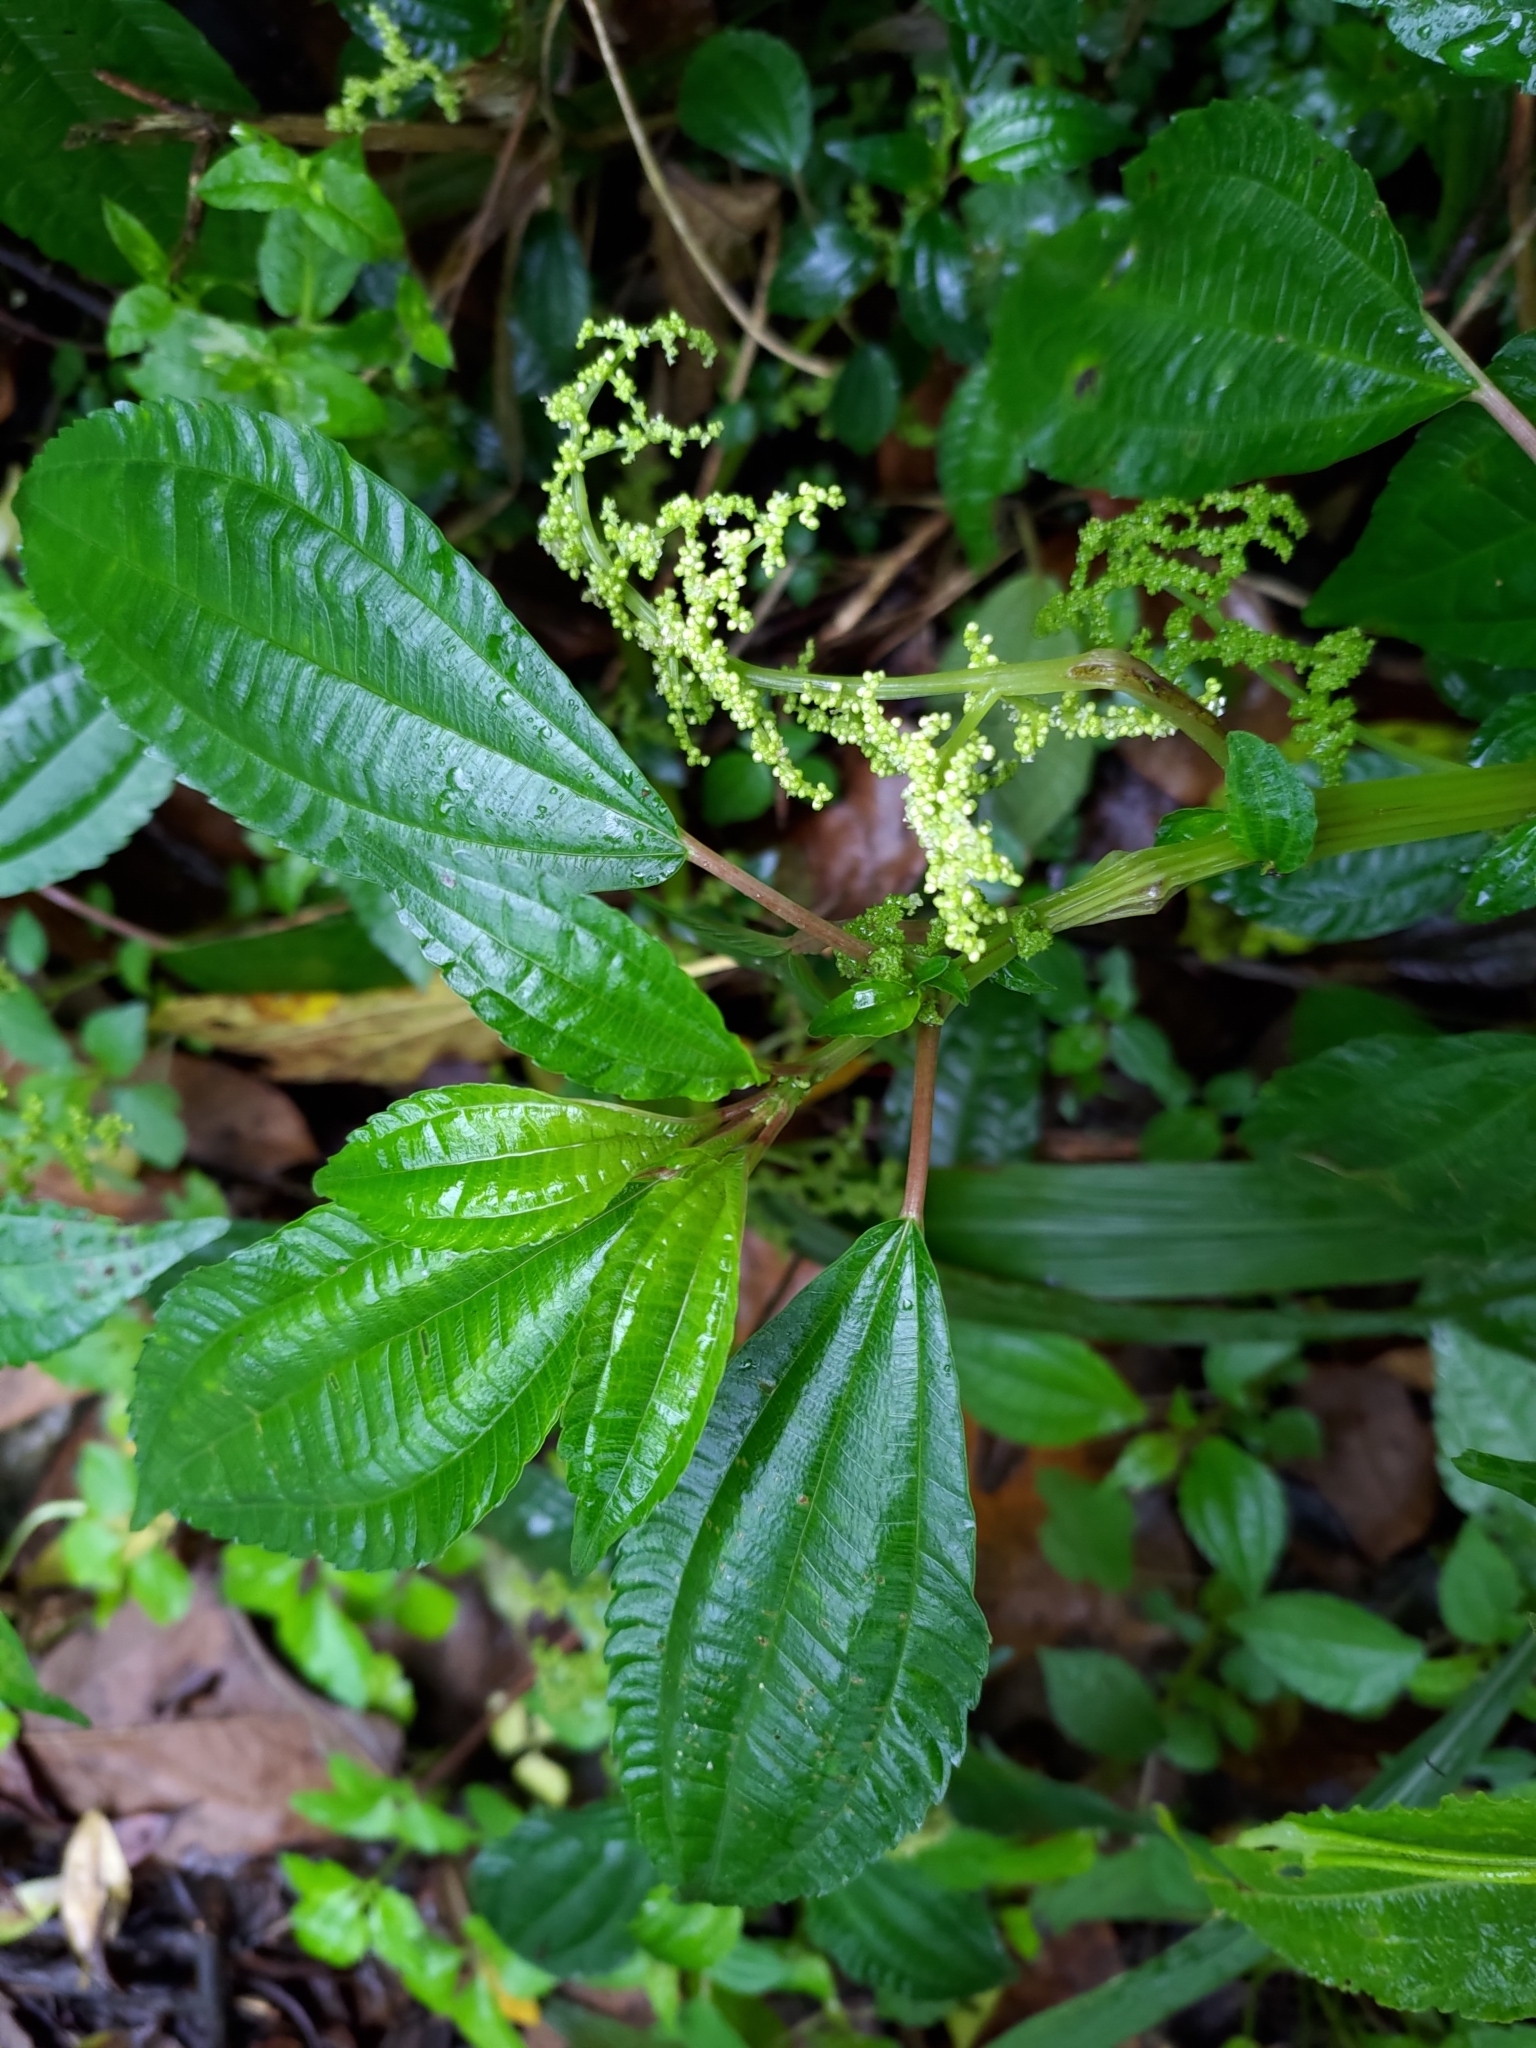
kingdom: Plantae
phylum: Tracheophyta
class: Magnoliopsida
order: Rosales
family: Urticaceae
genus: Pilea
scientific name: Pilea melastomoides
